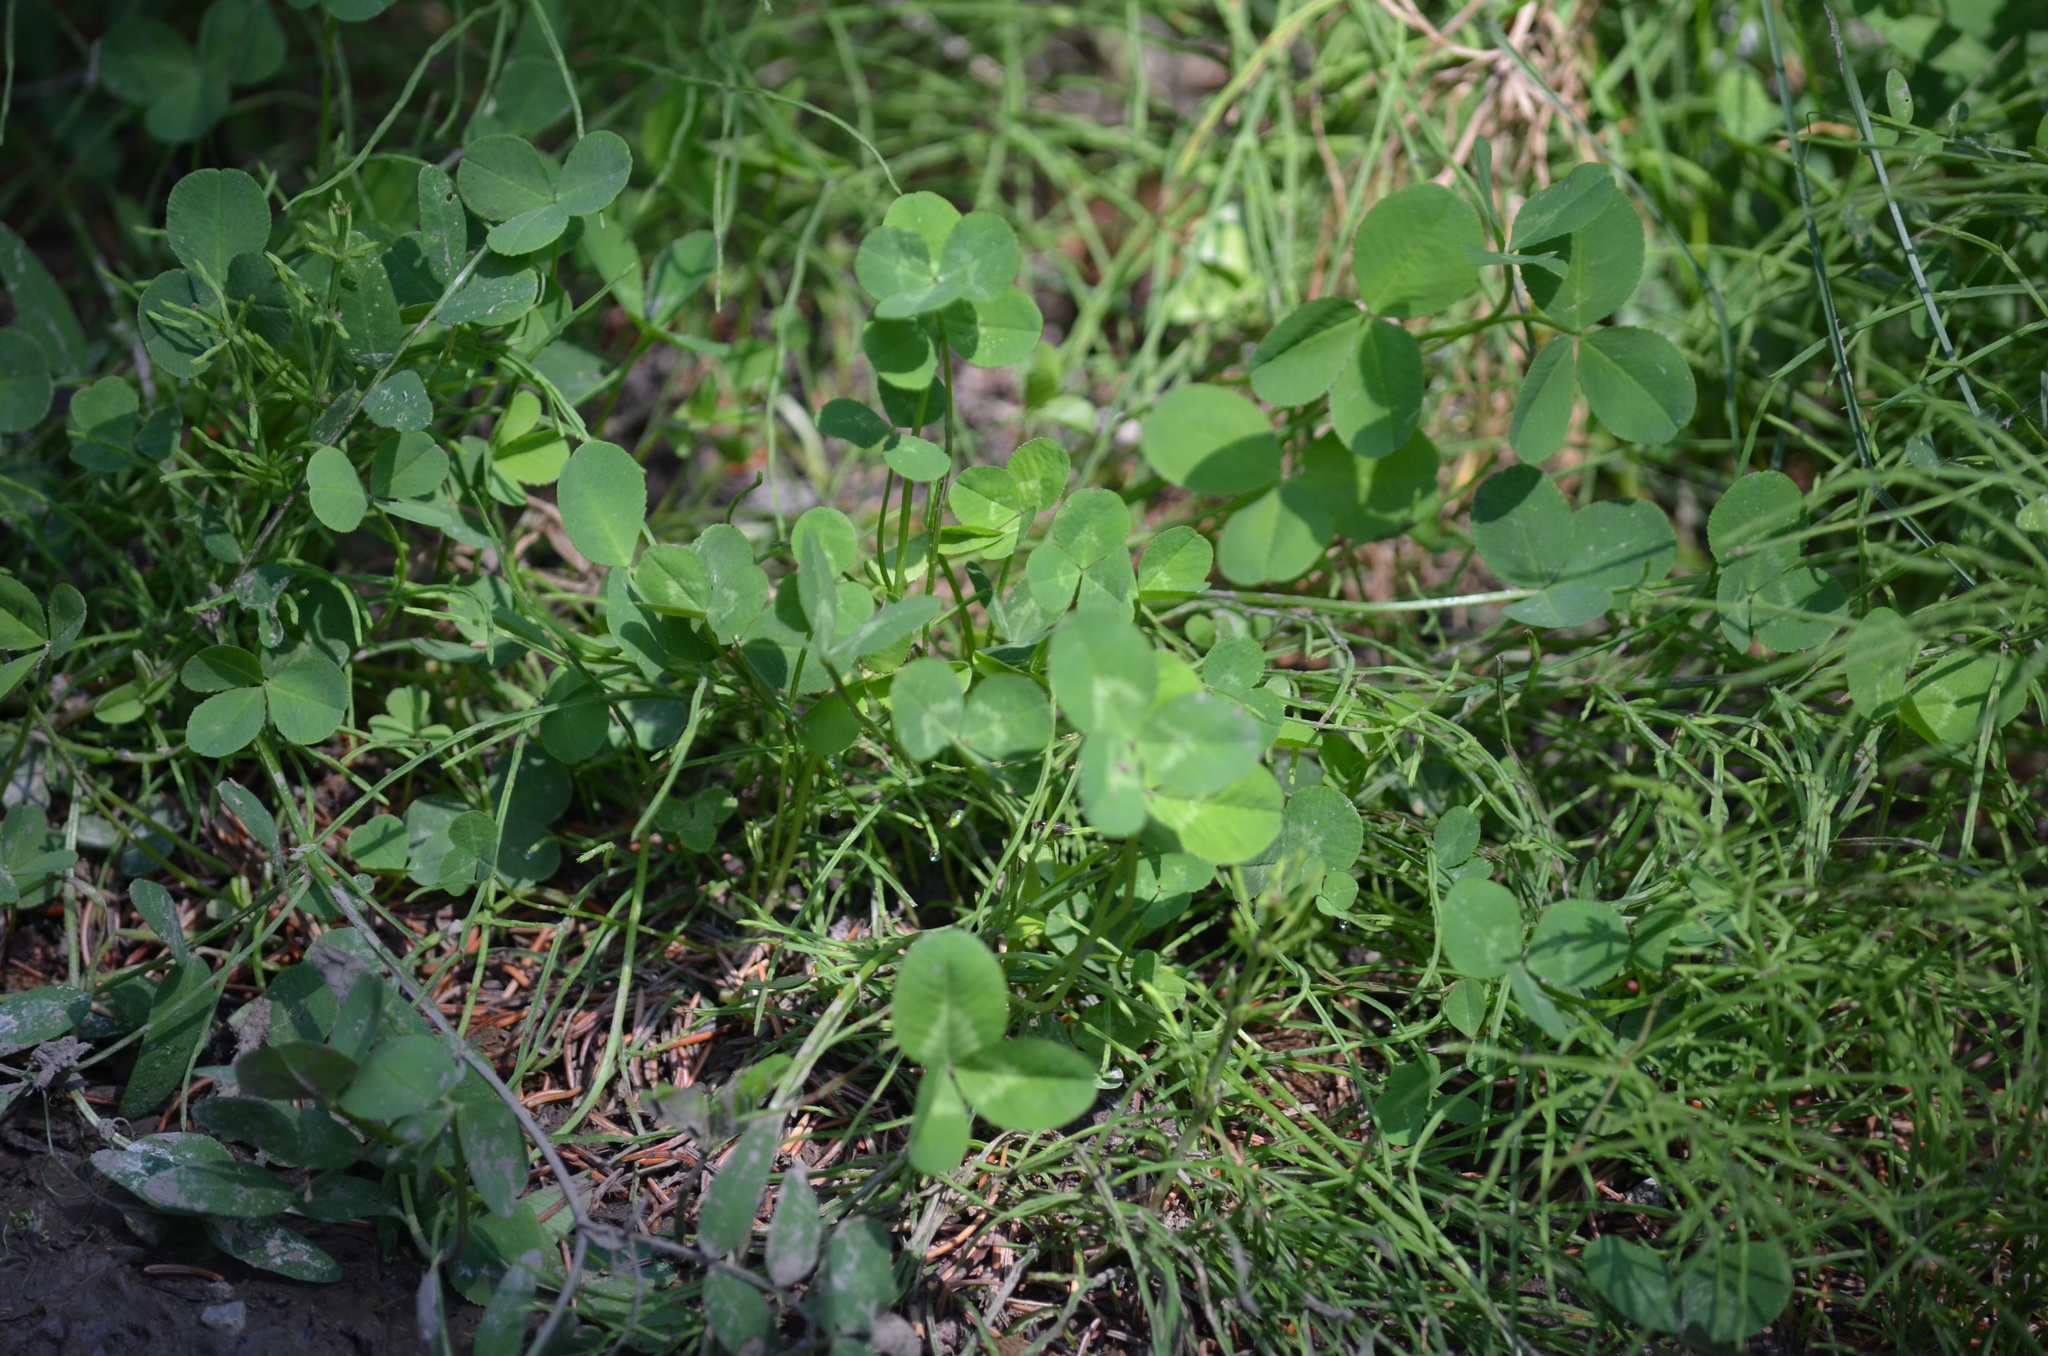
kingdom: Plantae
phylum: Tracheophyta
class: Magnoliopsida
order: Fabales
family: Fabaceae
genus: Trifolium
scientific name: Trifolium repens
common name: White clover
